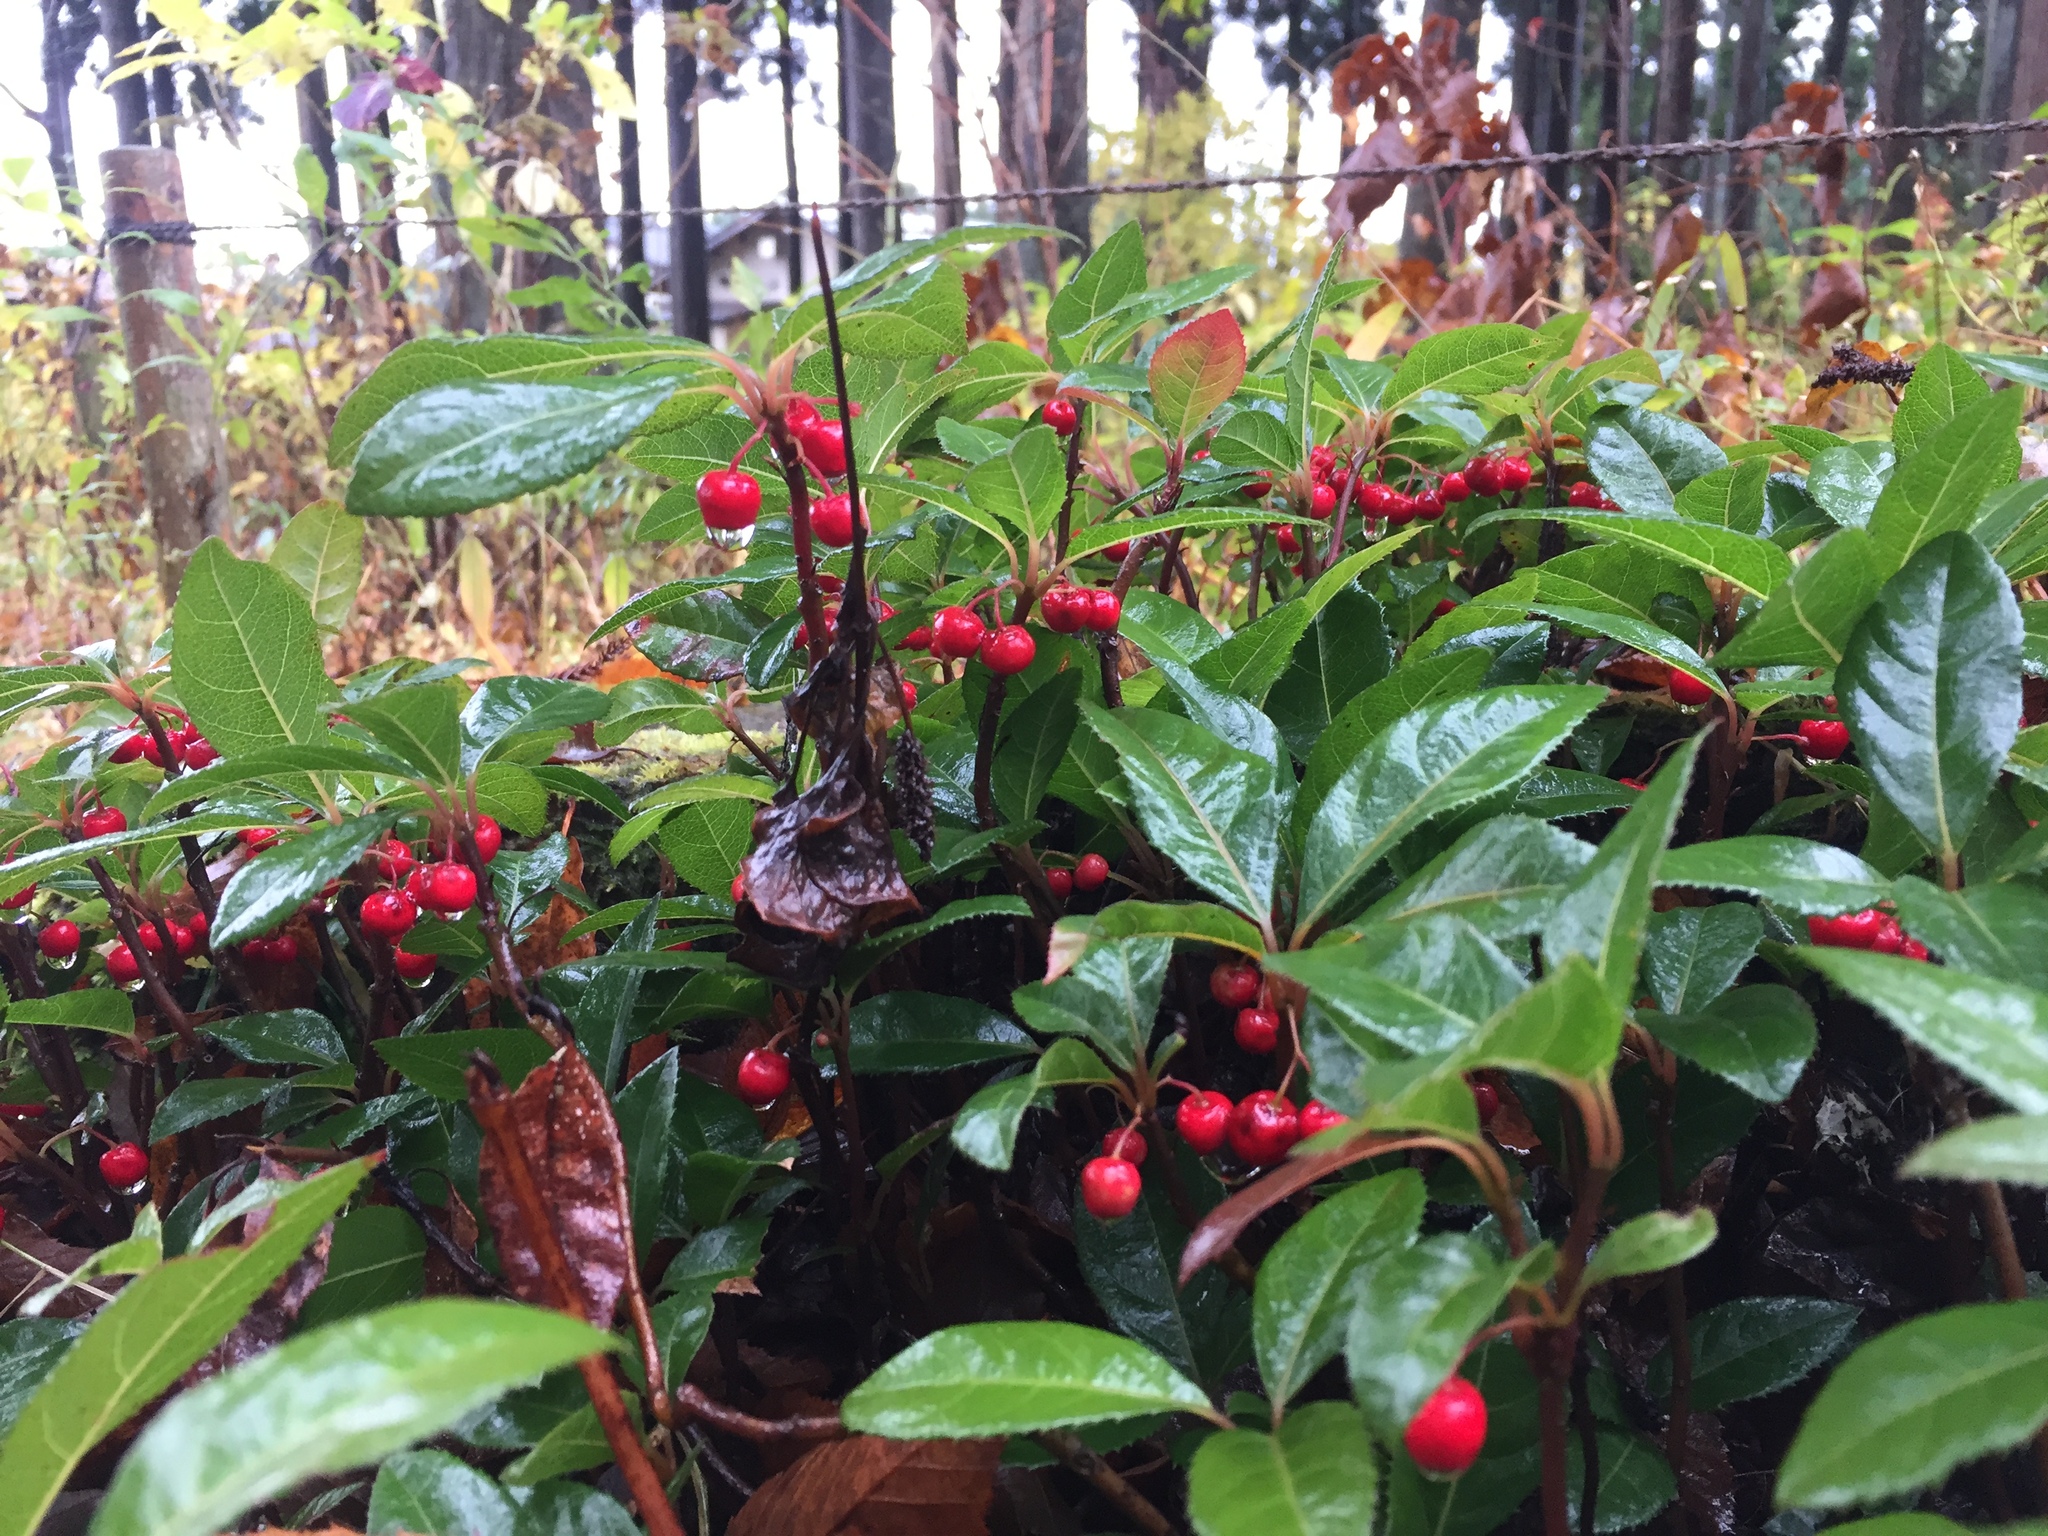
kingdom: Plantae
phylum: Tracheophyta
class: Magnoliopsida
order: Ericales
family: Primulaceae
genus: Ardisia
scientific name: Ardisia japonica
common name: Marlberry
